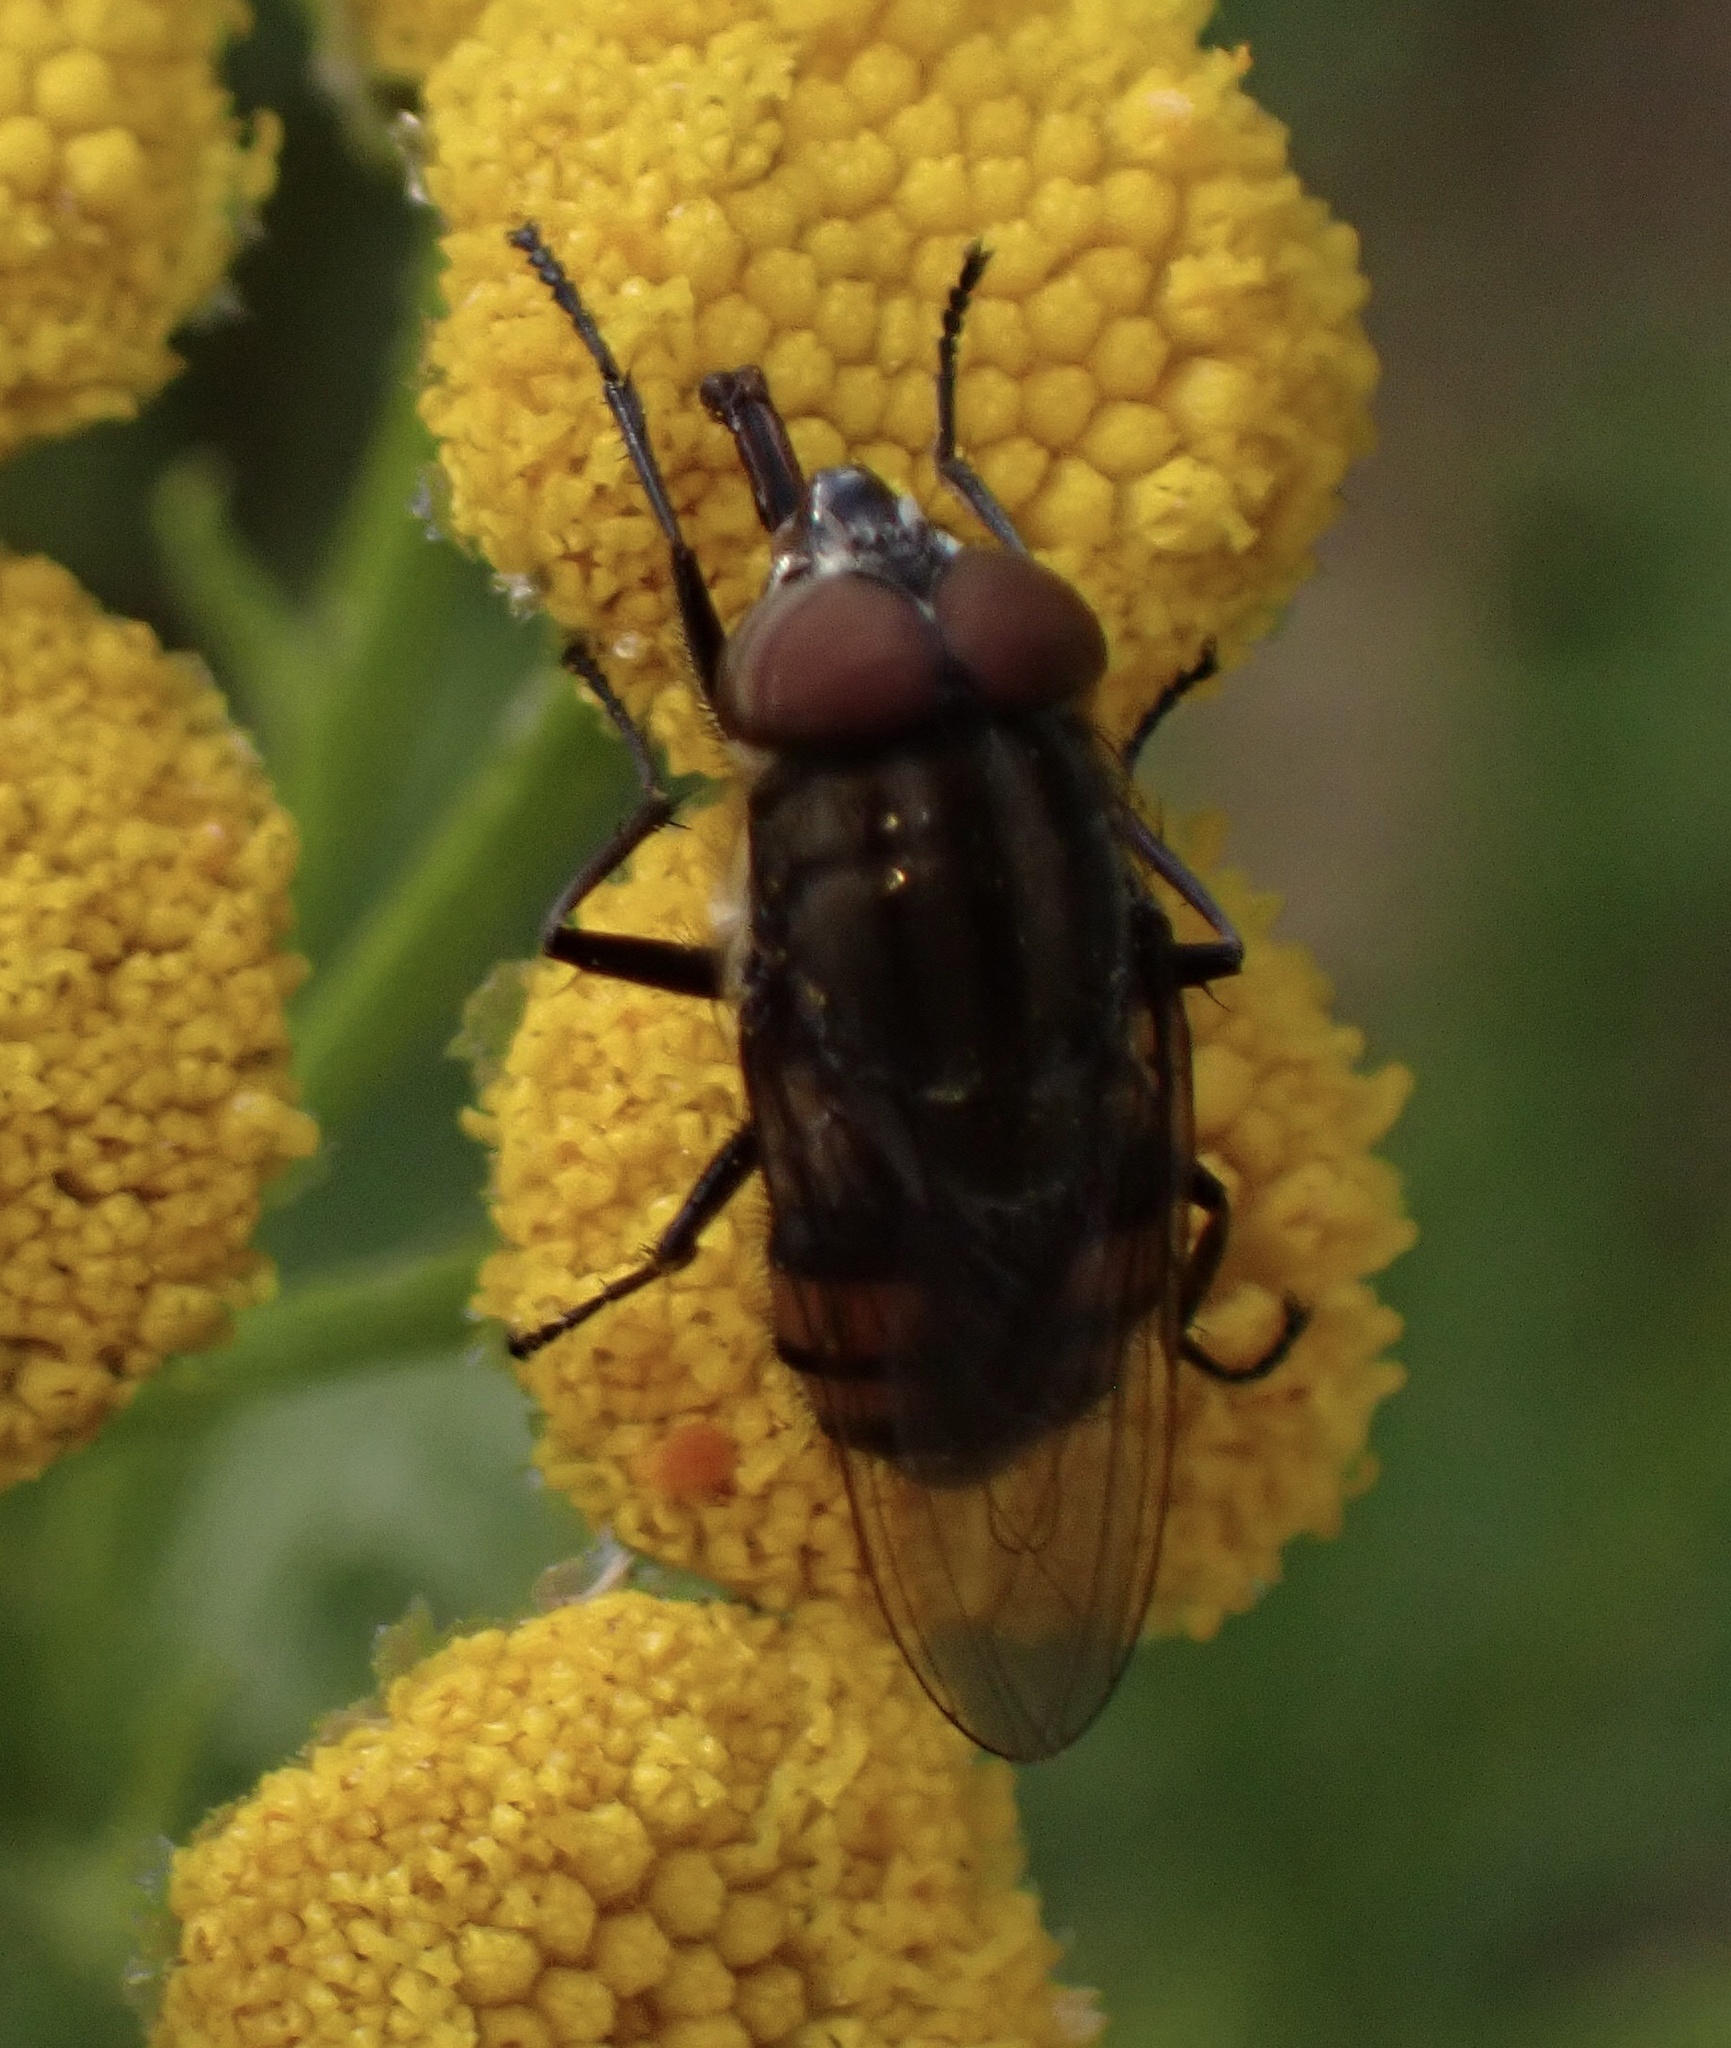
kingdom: Animalia
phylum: Arthropoda
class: Insecta
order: Diptera
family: Calliphoridae
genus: Stomorhina
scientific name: Stomorhina lunata
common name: Locust blowfly
